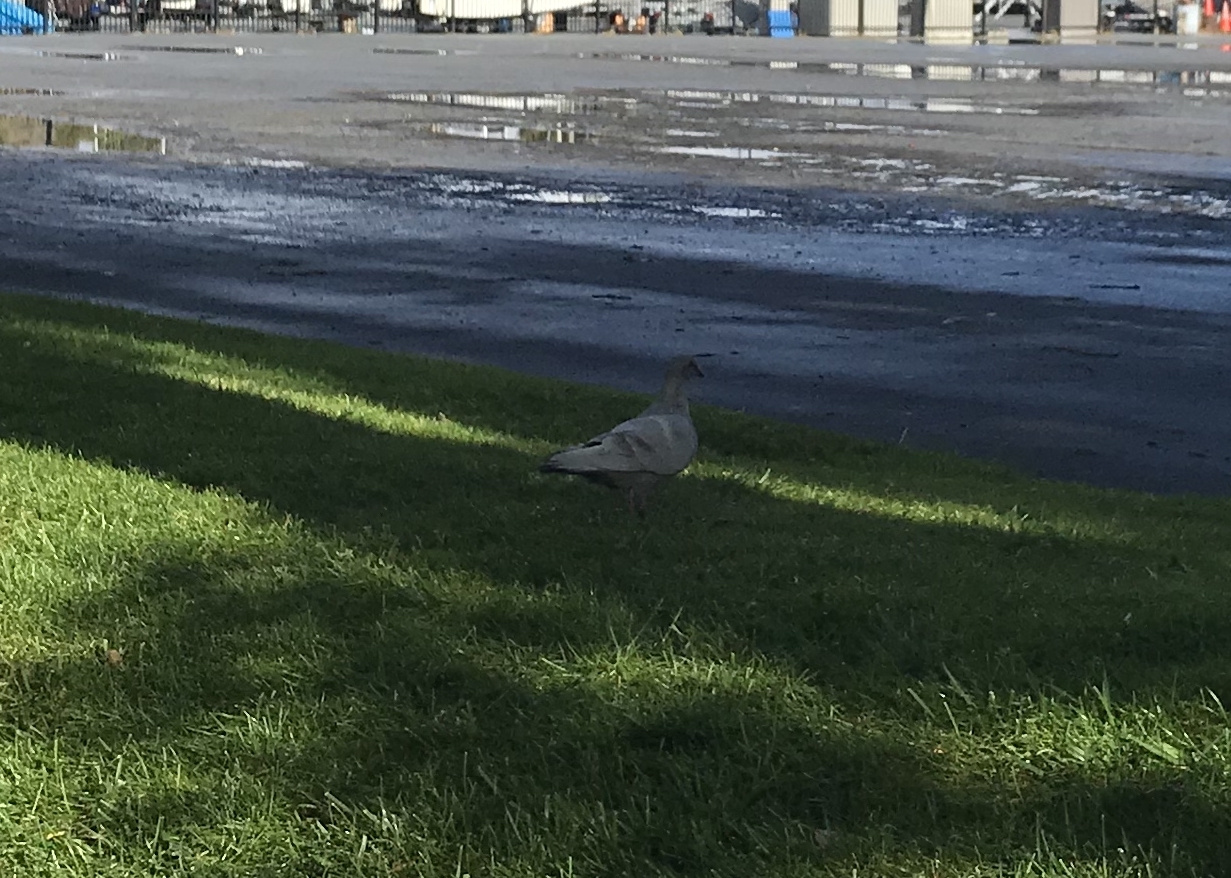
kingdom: Animalia
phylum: Chordata
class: Aves
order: Columbiformes
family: Columbidae
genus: Columba
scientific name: Columba livia
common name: Rock pigeon
